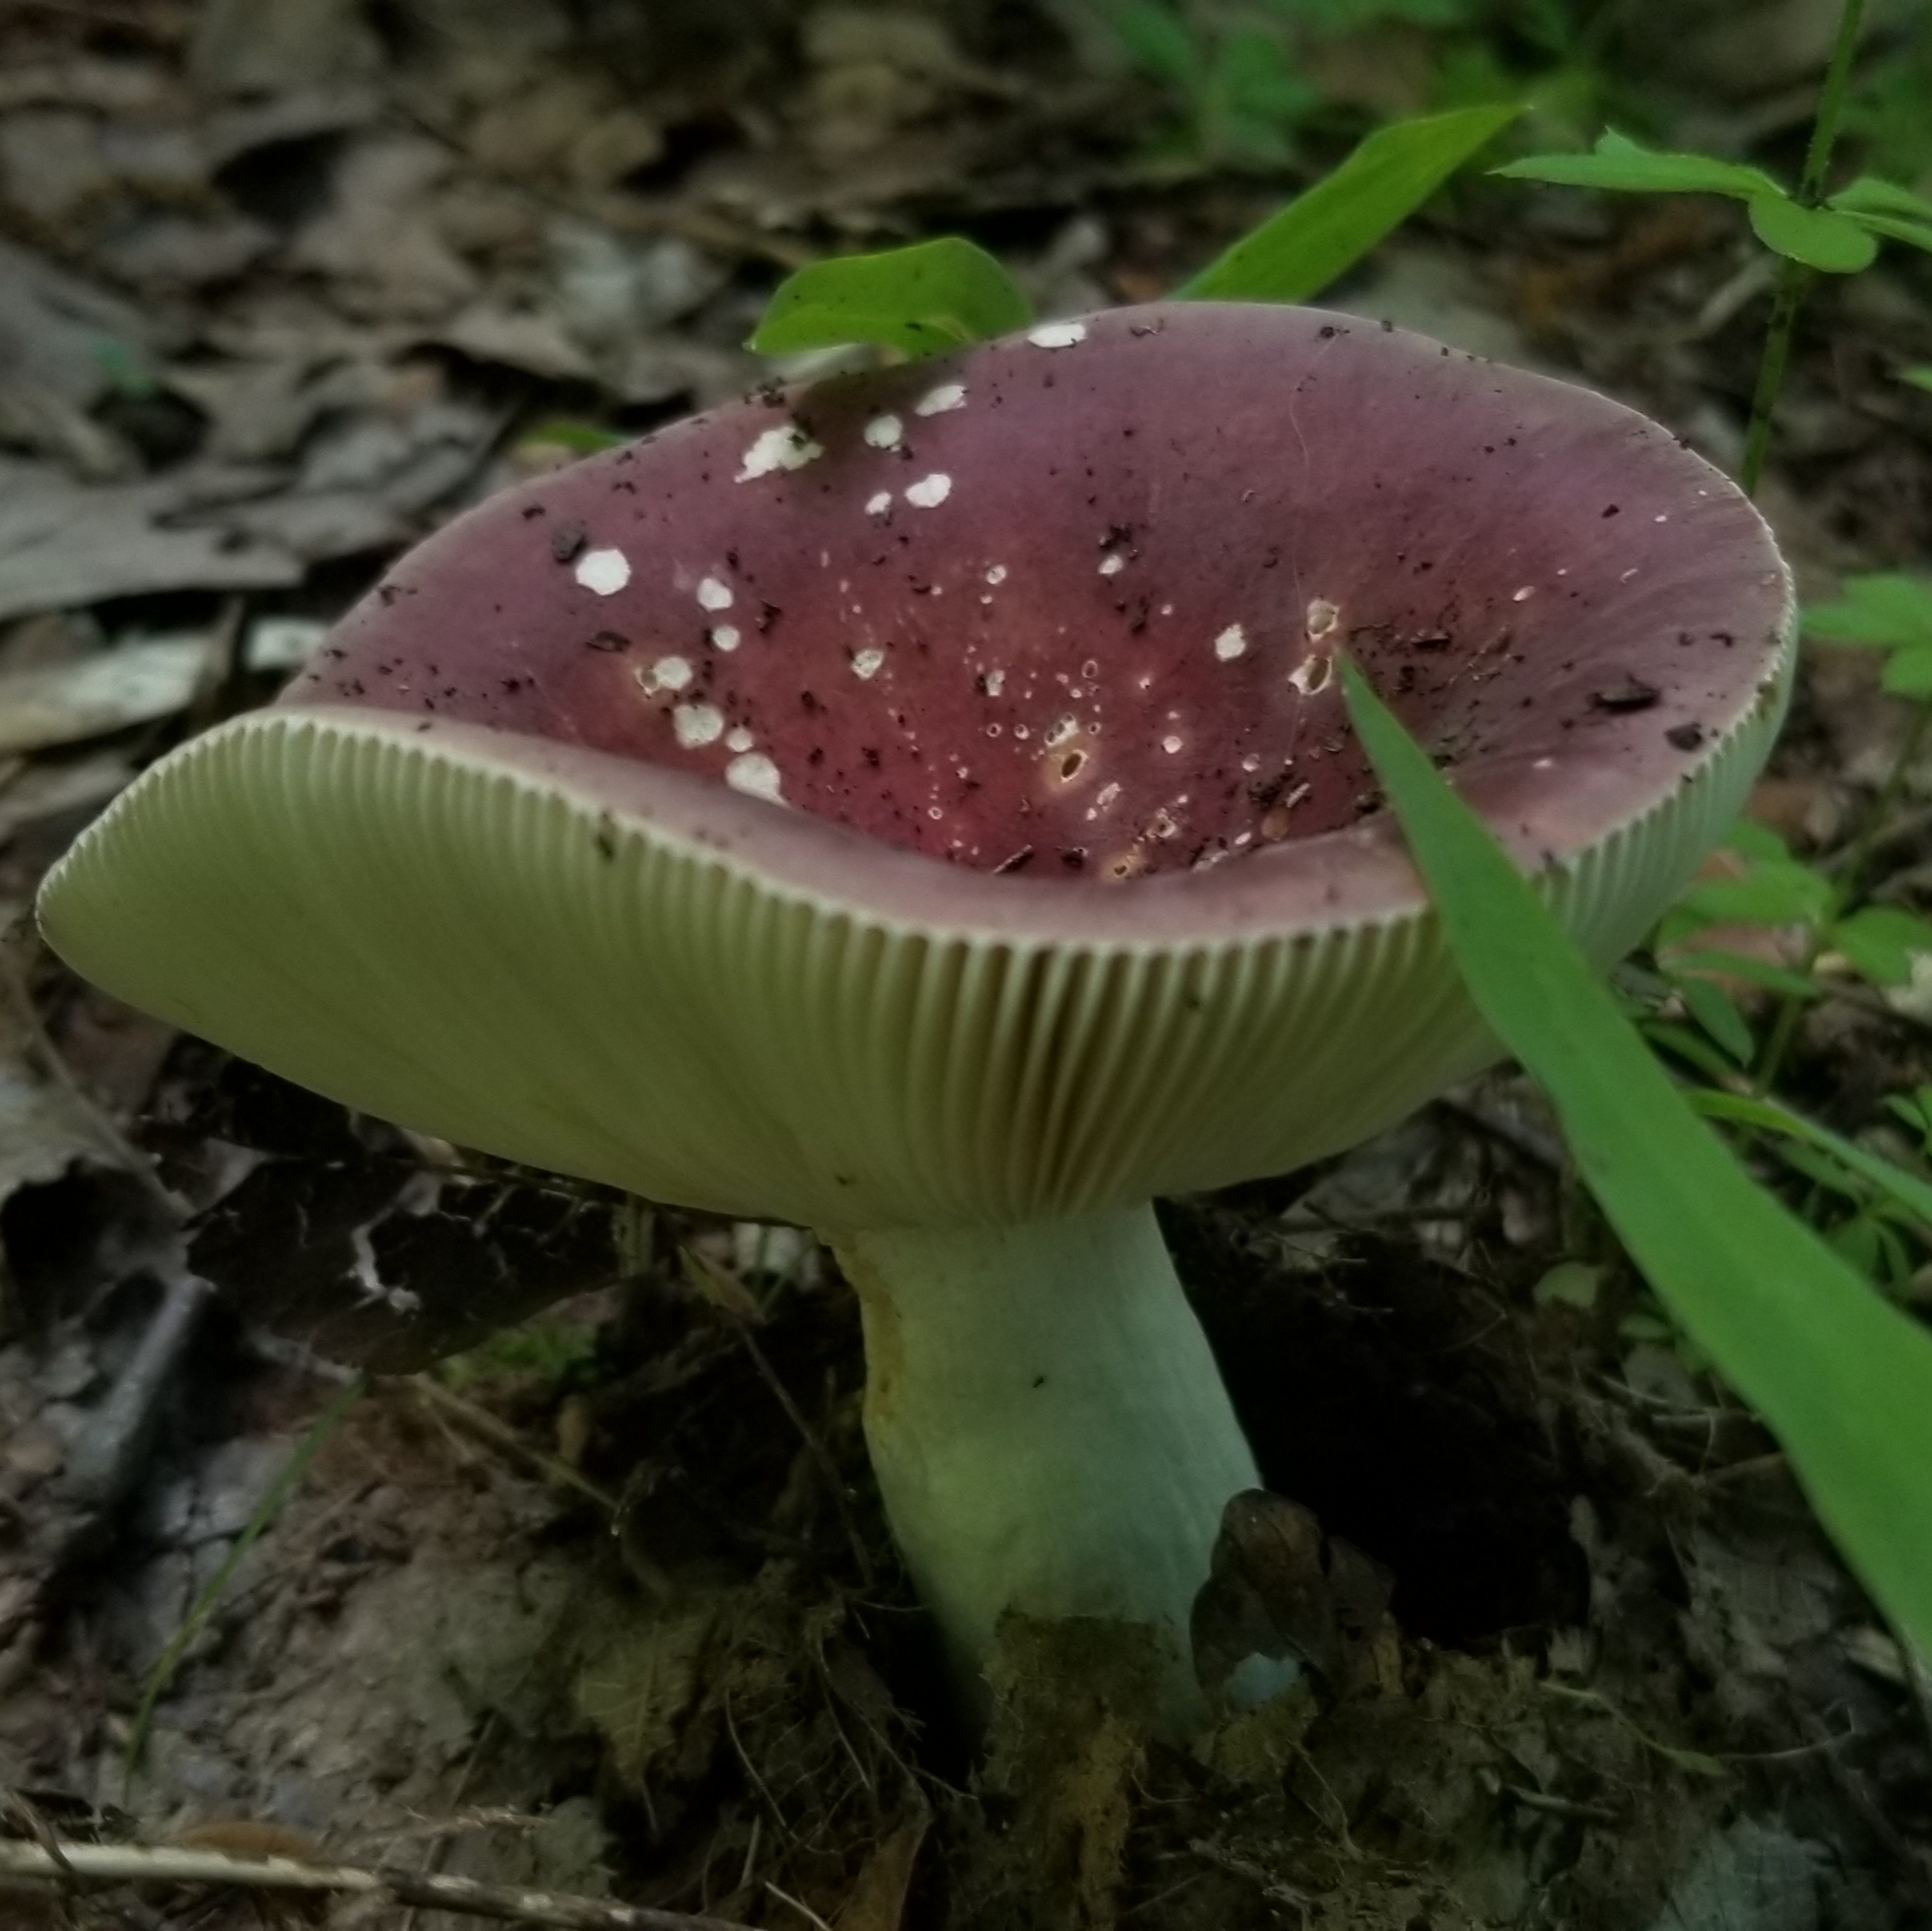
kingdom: Fungi
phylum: Basidiomycota
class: Agaricomycetes
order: Russulales
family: Russulaceae
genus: Russula
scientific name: Russula
